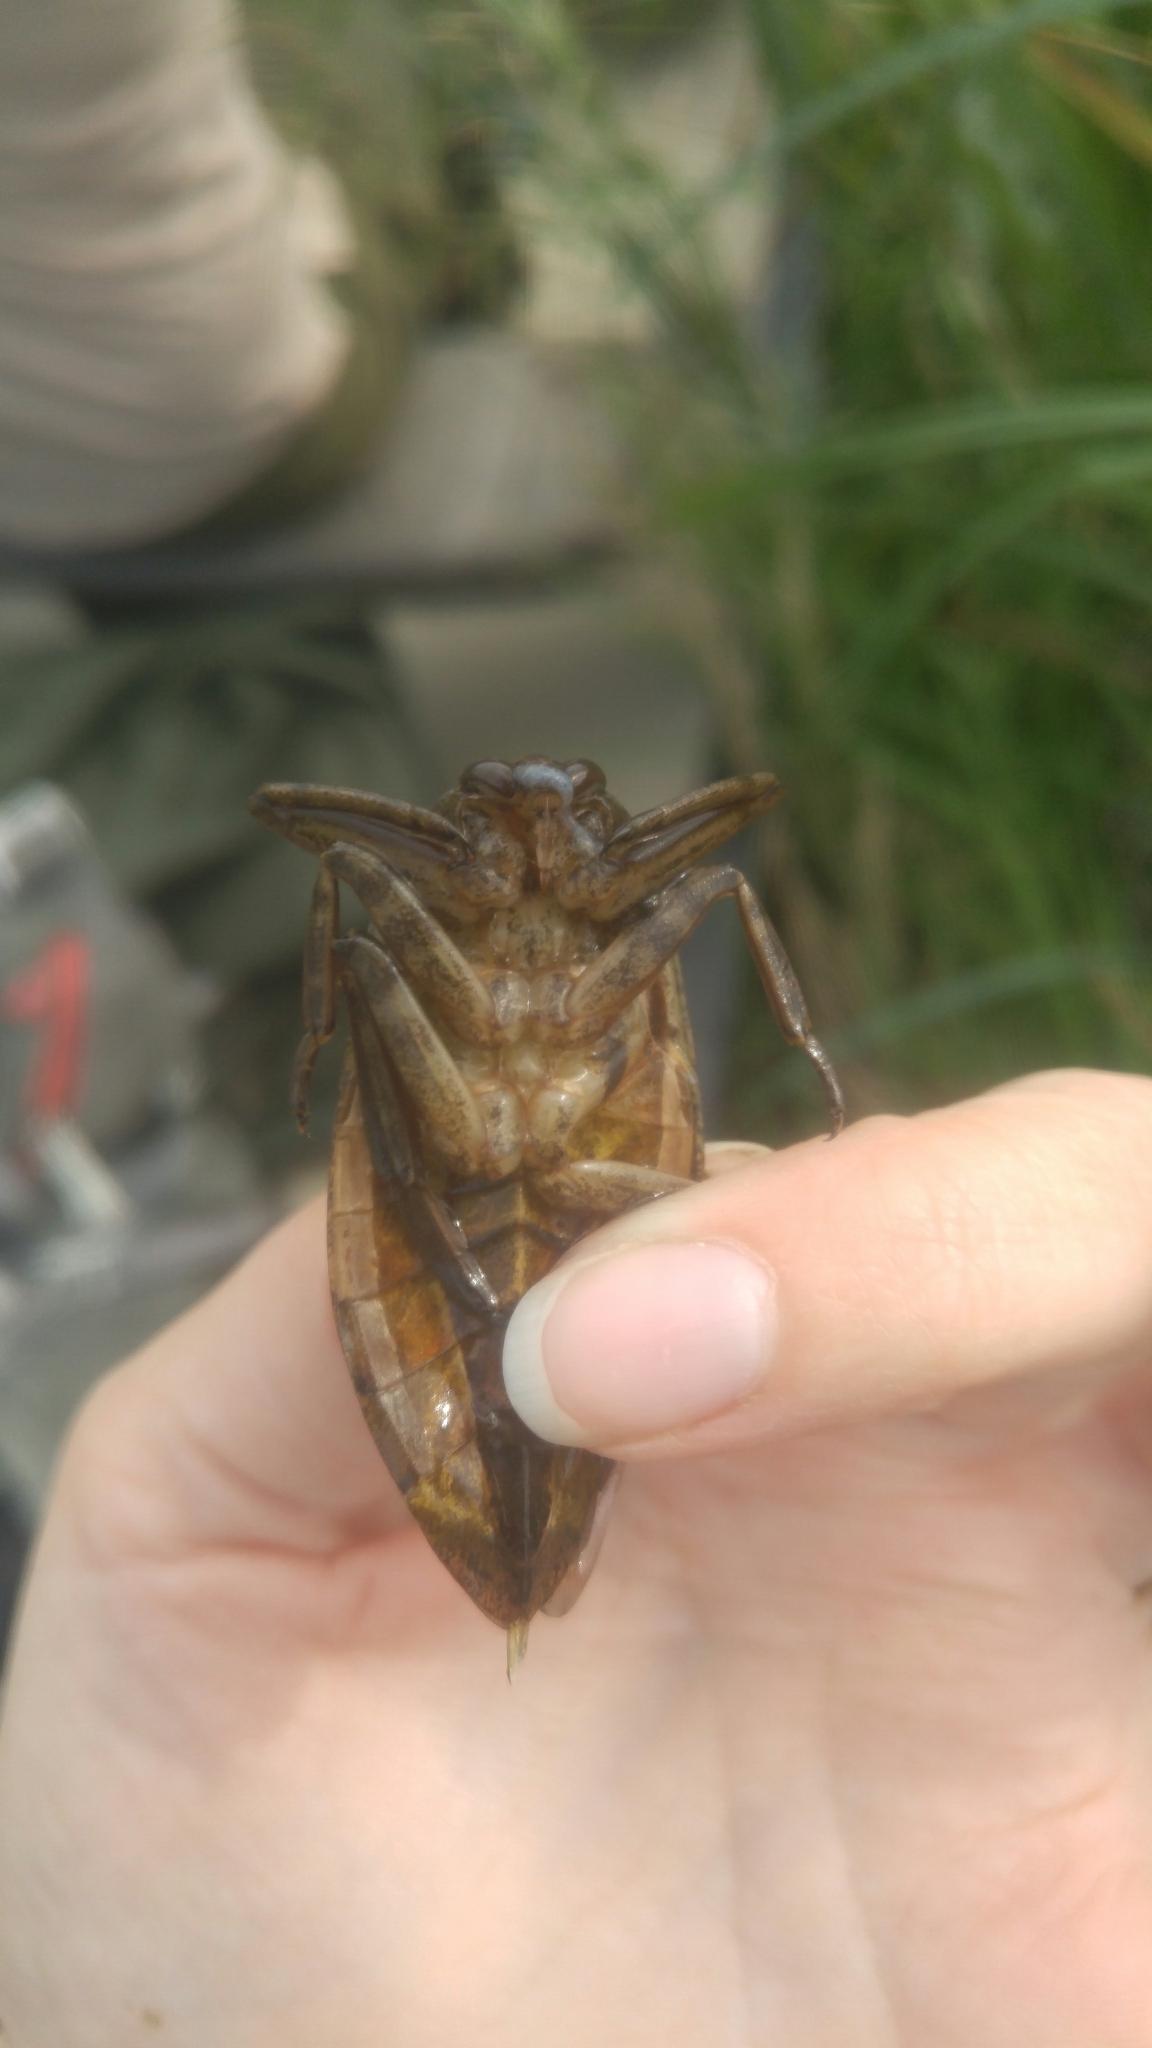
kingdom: Animalia
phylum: Arthropoda
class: Insecta
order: Hemiptera
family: Belostomatidae
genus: Lethocerus
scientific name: Lethocerus americanus
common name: Giant water bug
